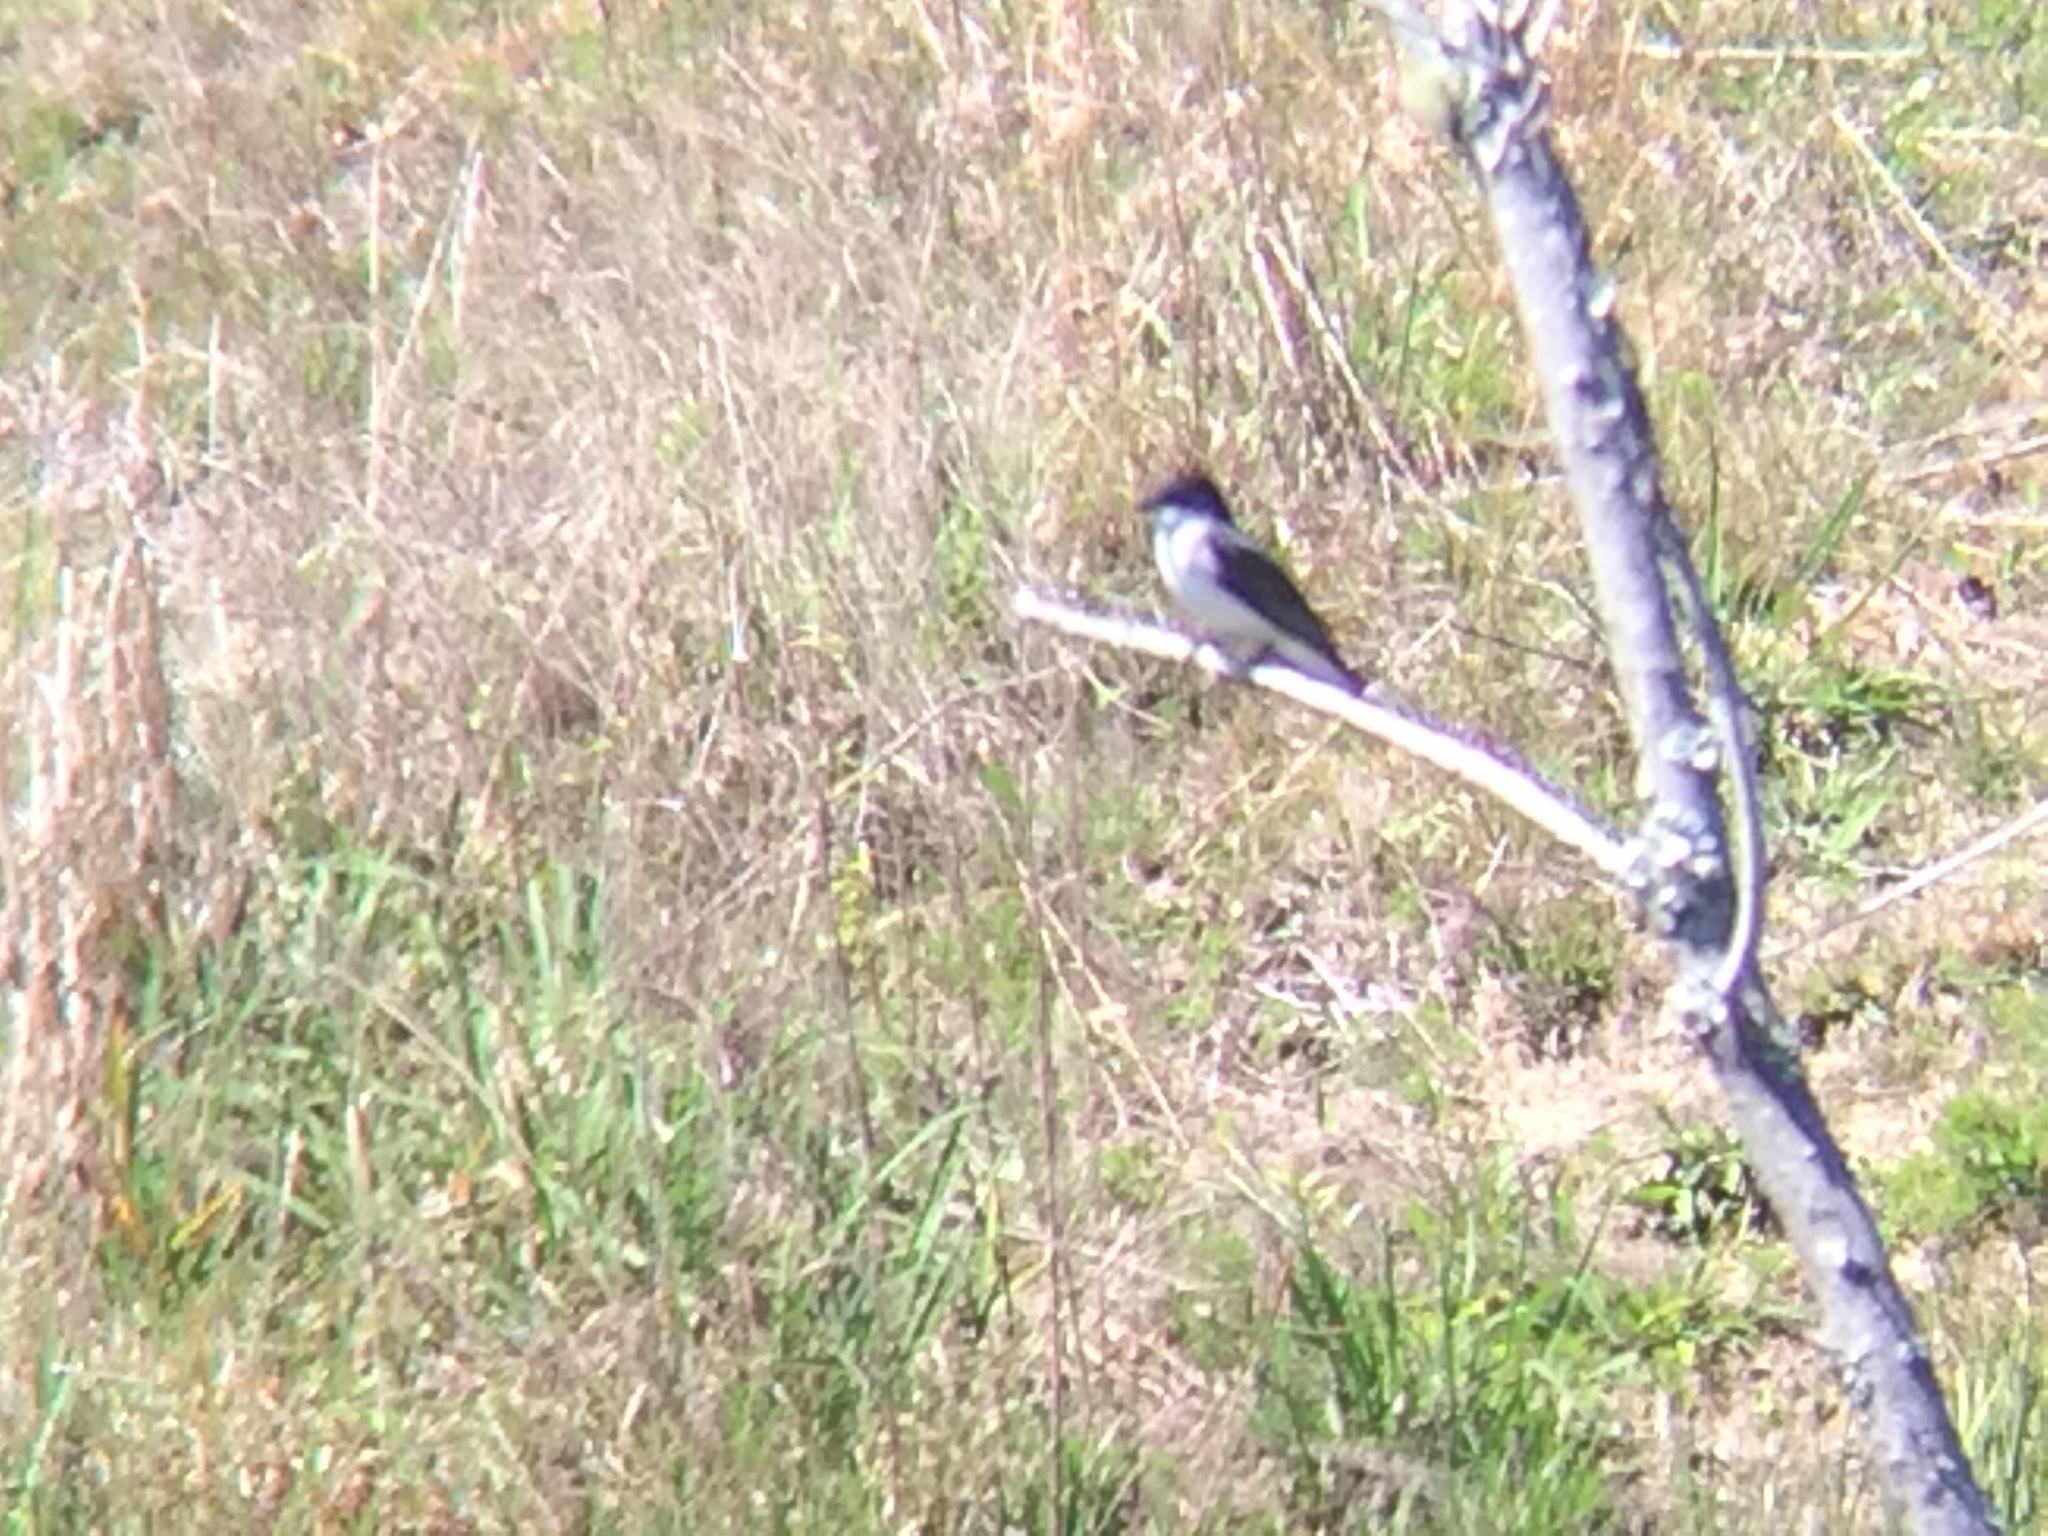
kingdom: Animalia
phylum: Chordata
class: Aves
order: Passeriformes
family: Tyrannidae
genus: Tyrannus
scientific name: Tyrannus tyrannus
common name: Eastern kingbird
